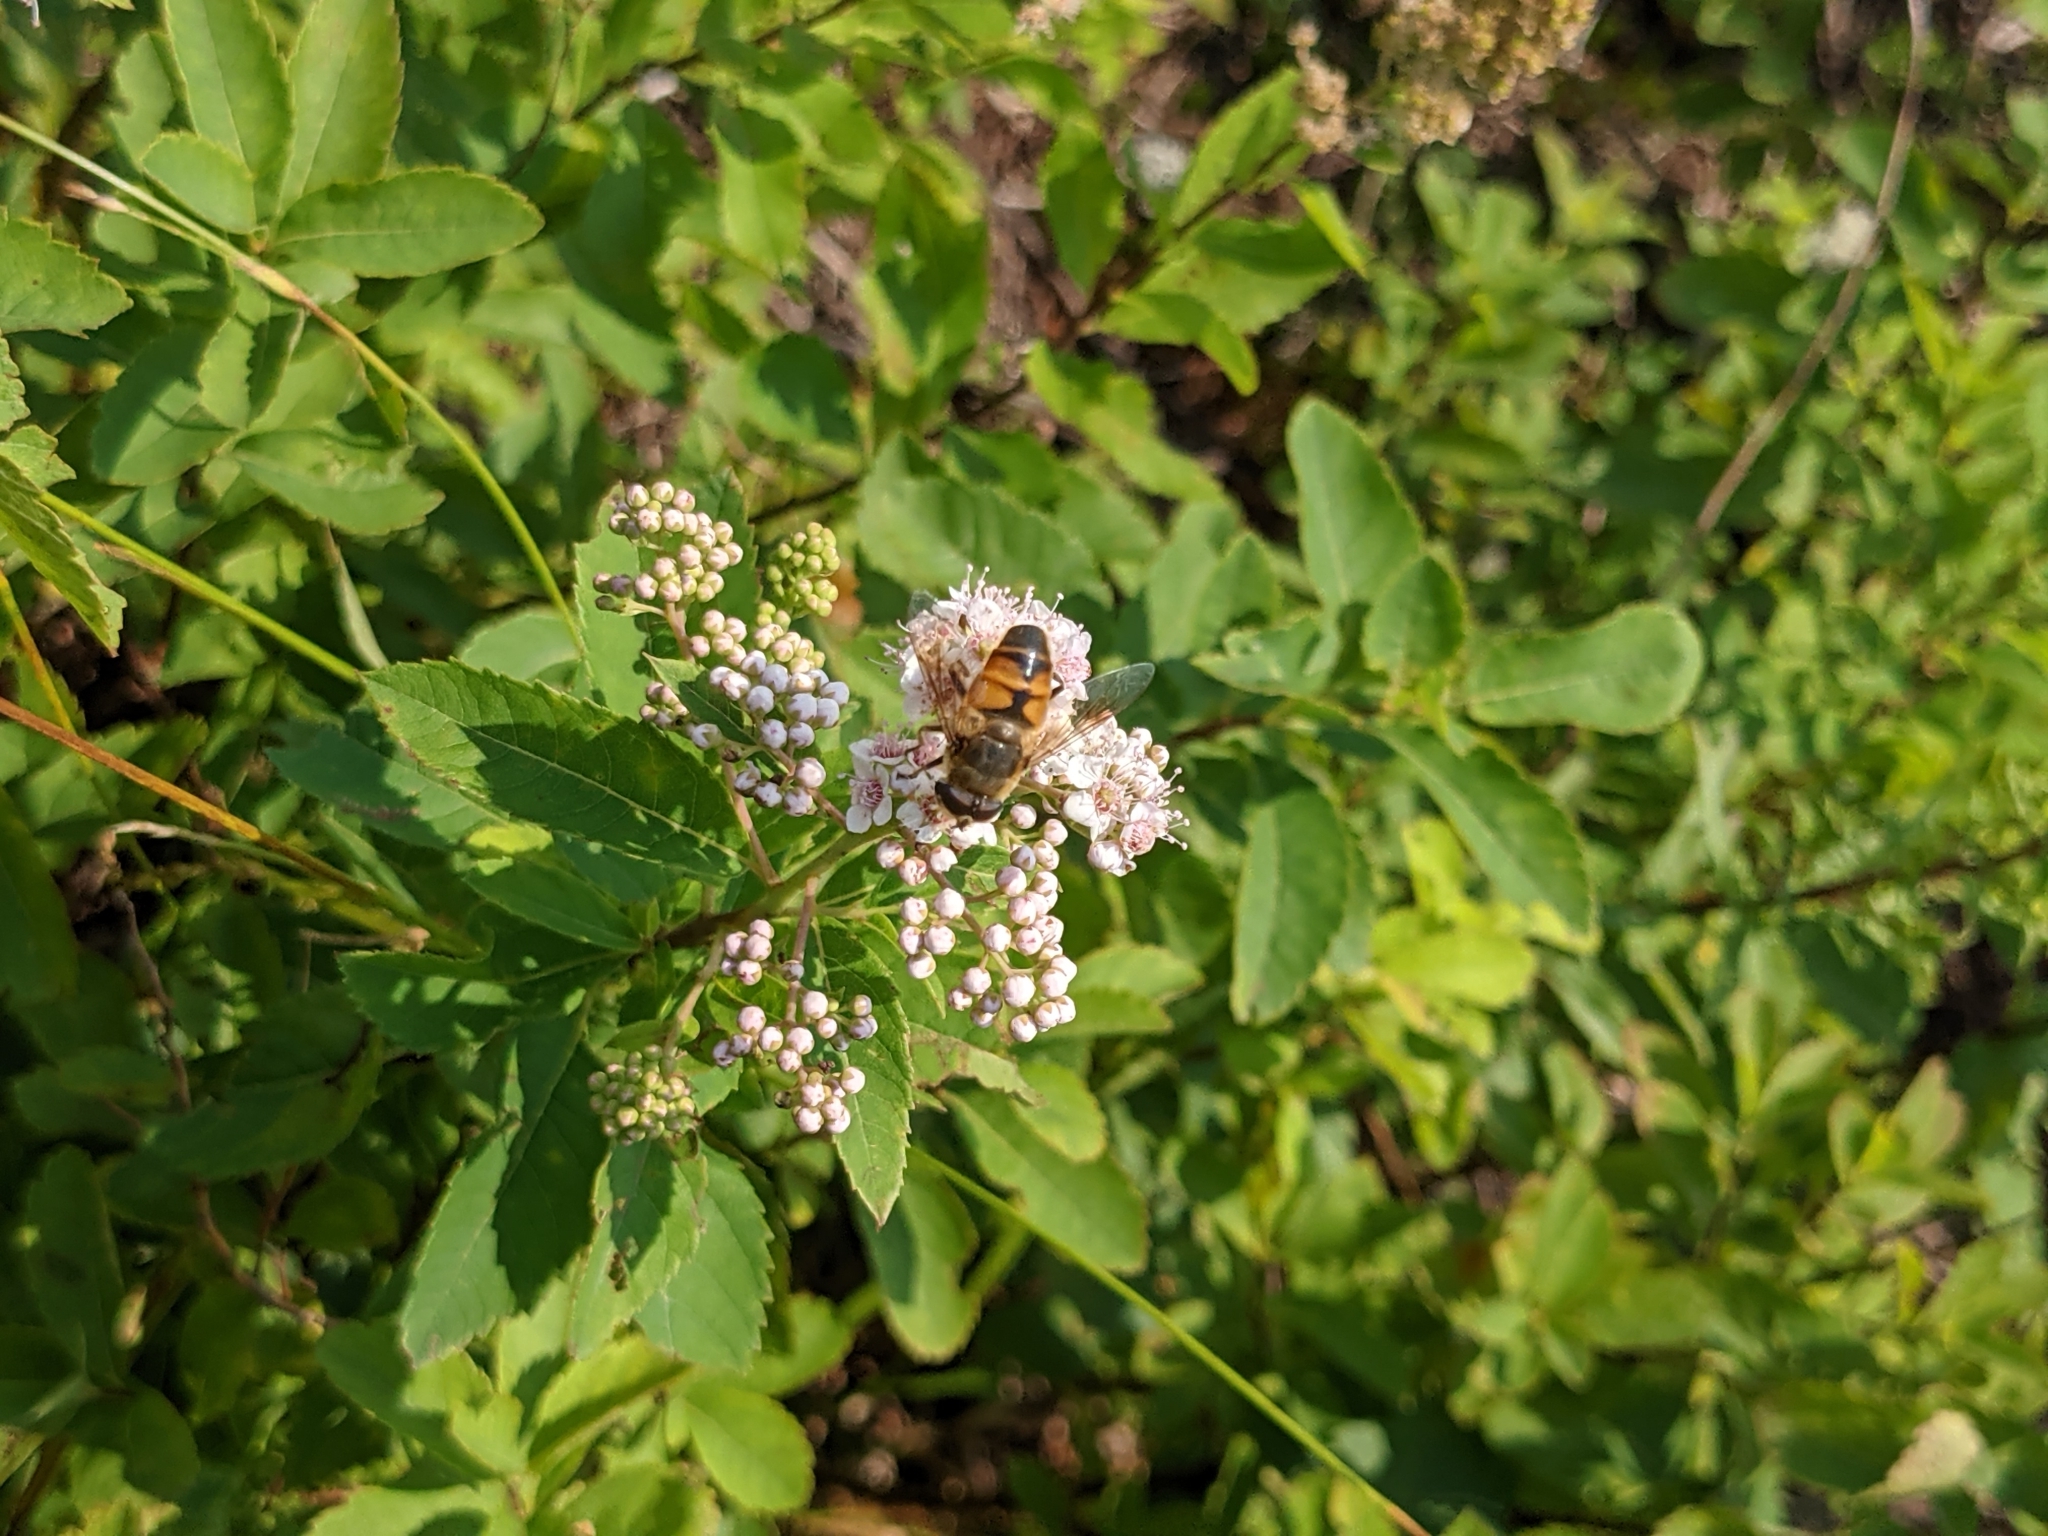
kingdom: Animalia
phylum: Arthropoda
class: Insecta
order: Diptera
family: Syrphidae
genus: Eristalis
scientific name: Eristalis tenax
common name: Drone fly
